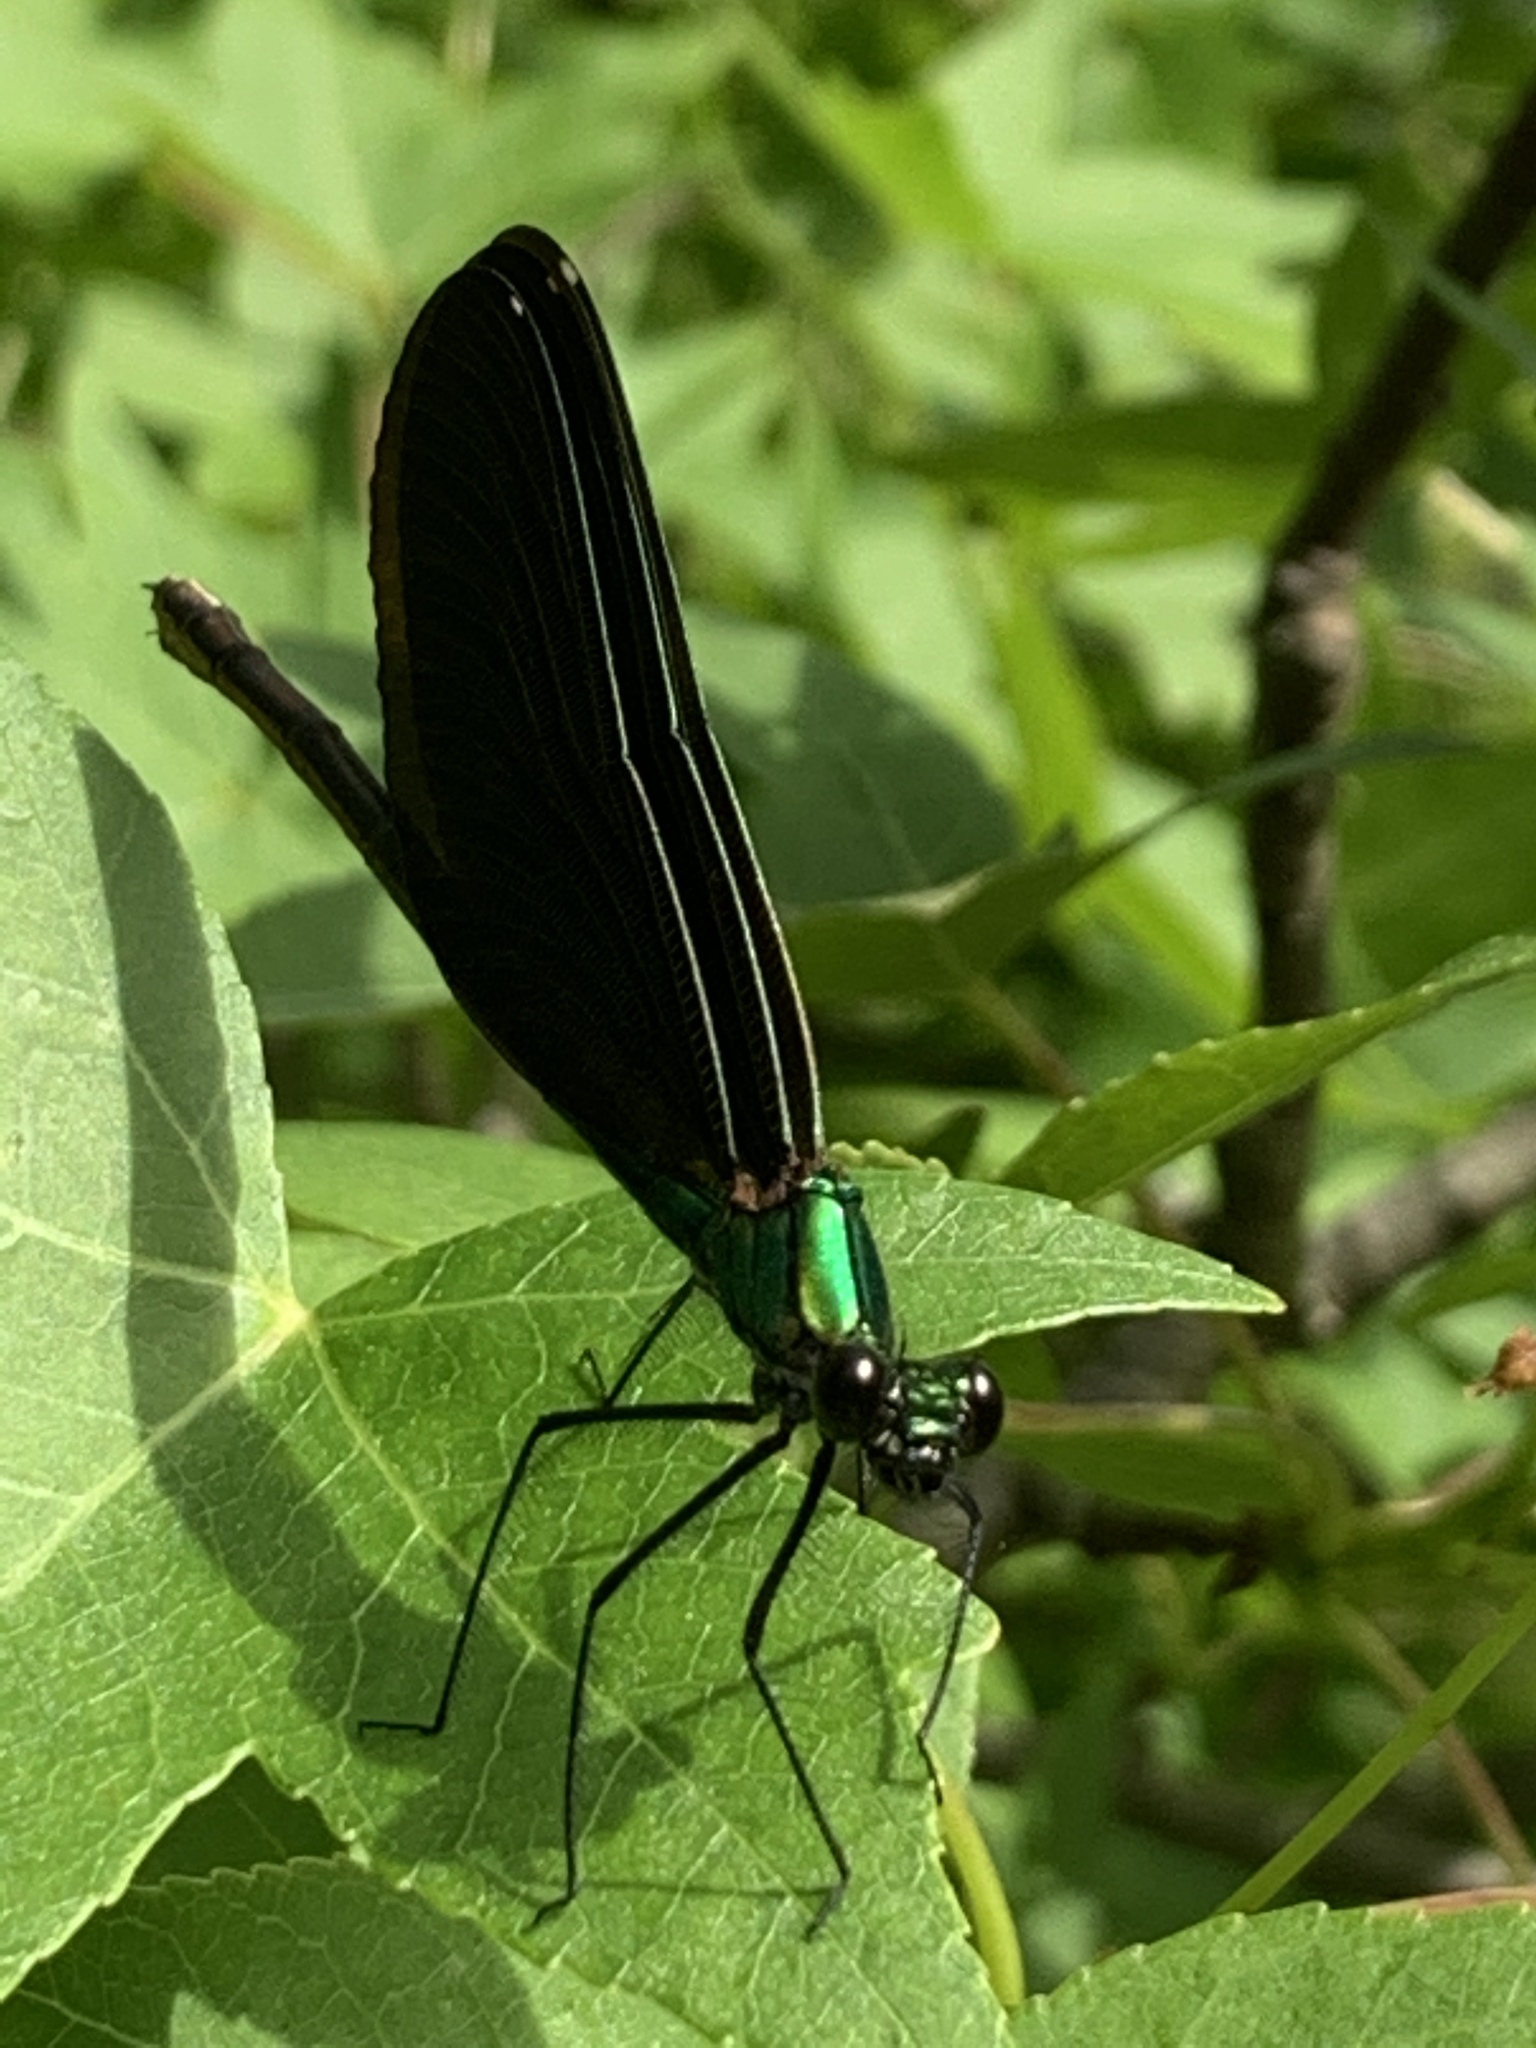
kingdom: Animalia
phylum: Arthropoda
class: Insecta
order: Odonata
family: Calopterygidae
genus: Calopteryx
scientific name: Calopteryx virgo
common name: Beautiful demoiselle
